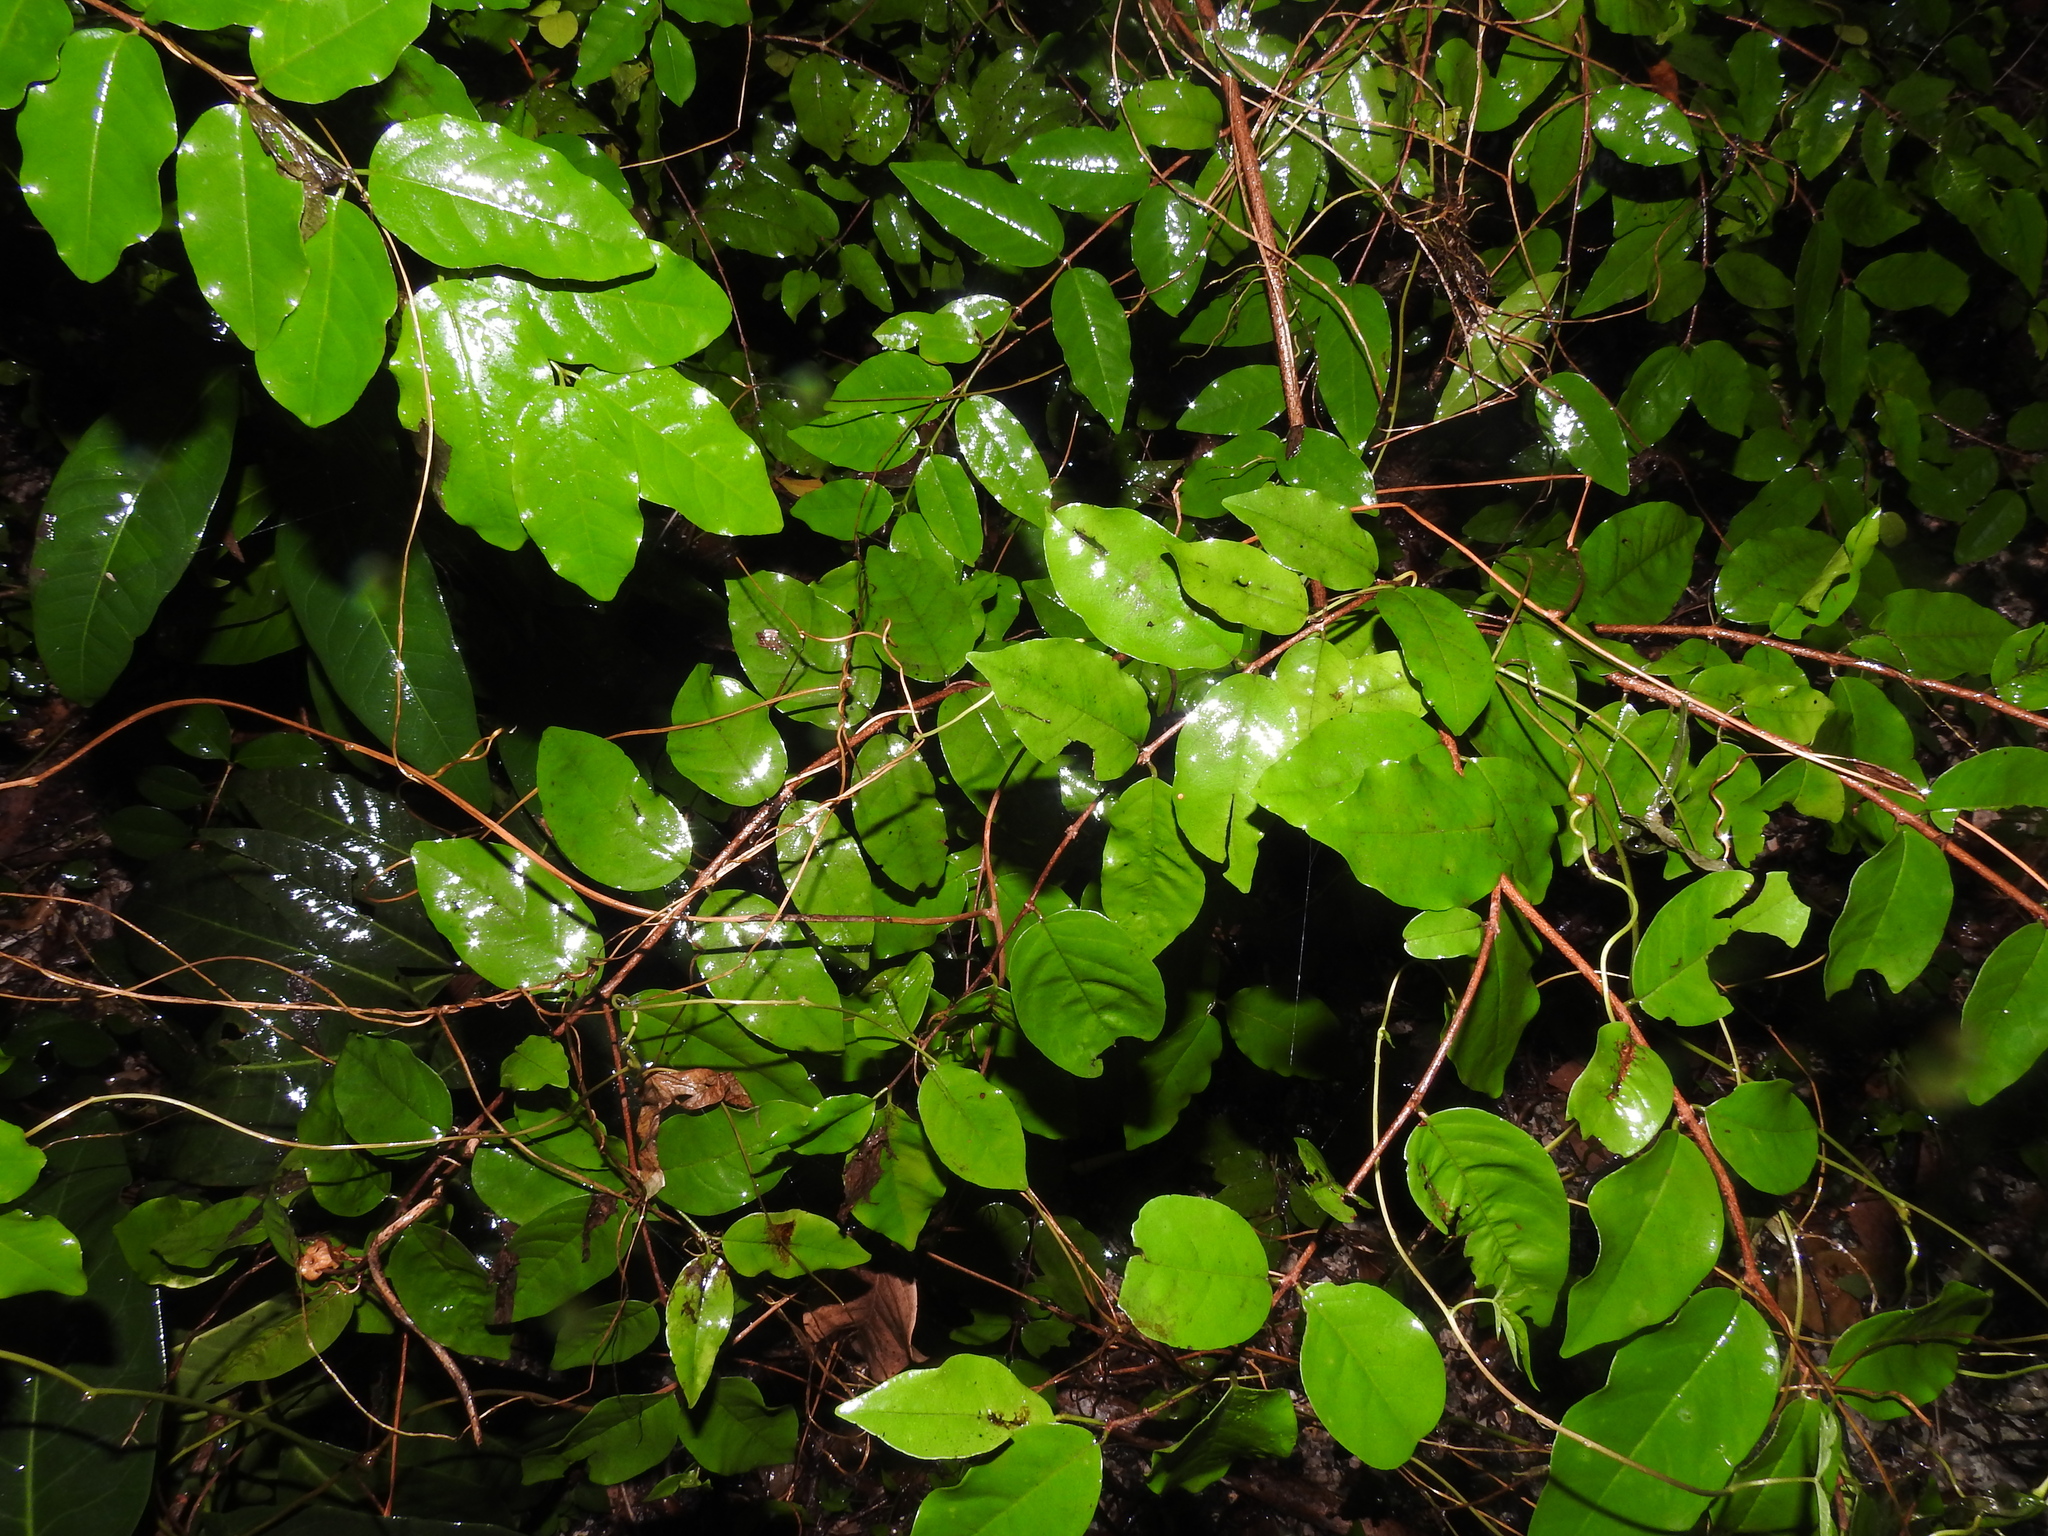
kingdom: Plantae
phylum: Tracheophyta
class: Magnoliopsida
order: Rosales
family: Rhamnaceae
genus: Krugiodendron
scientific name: Krugiodendron ferreum
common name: Iron wood
